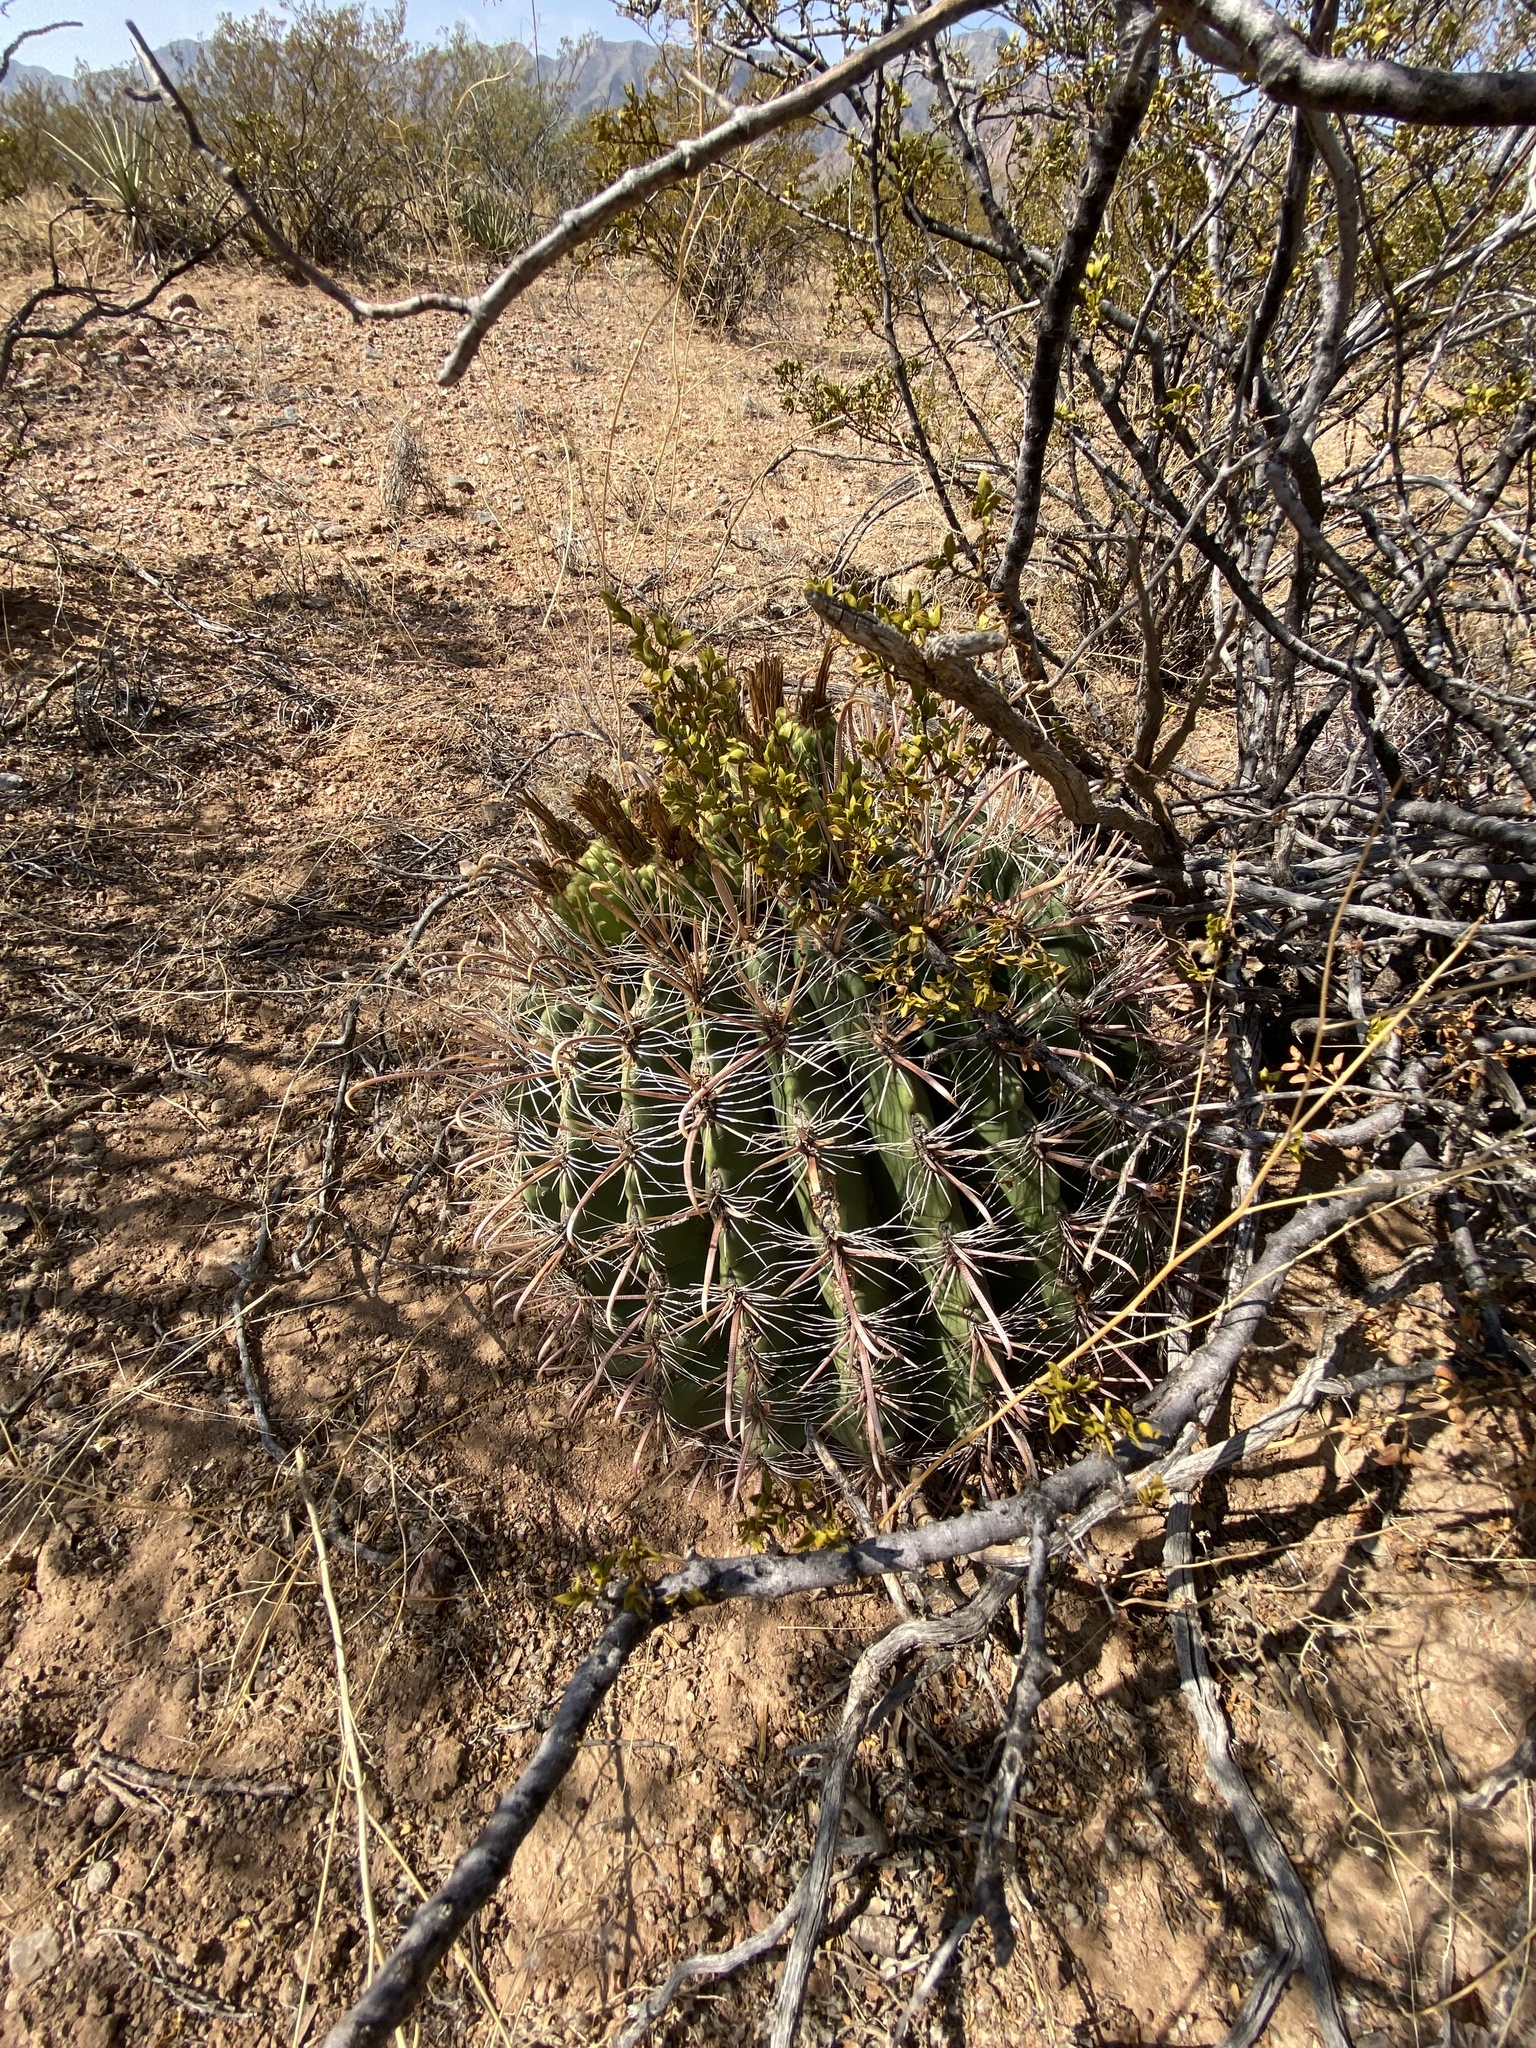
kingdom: Plantae
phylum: Tracheophyta
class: Magnoliopsida
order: Caryophyllales
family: Cactaceae
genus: Ferocactus
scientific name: Ferocactus wislizeni
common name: Candy barrel cactus
